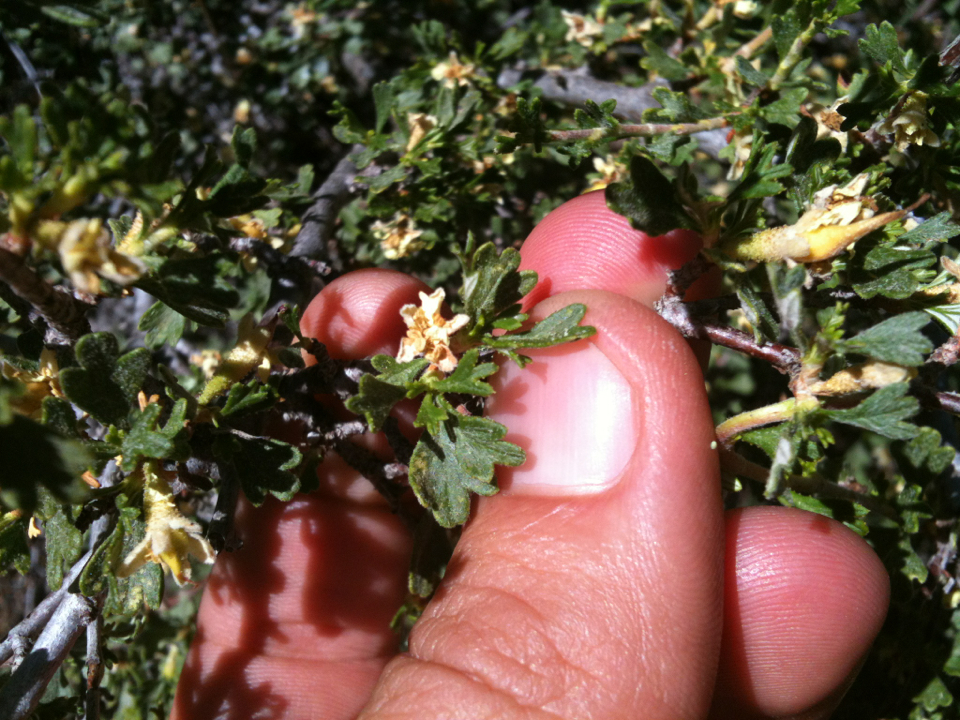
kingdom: Plantae
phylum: Tracheophyta
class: Magnoliopsida
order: Rosales
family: Rosaceae
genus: Purshia
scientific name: Purshia tridentata
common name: Antelope bitterbrush
